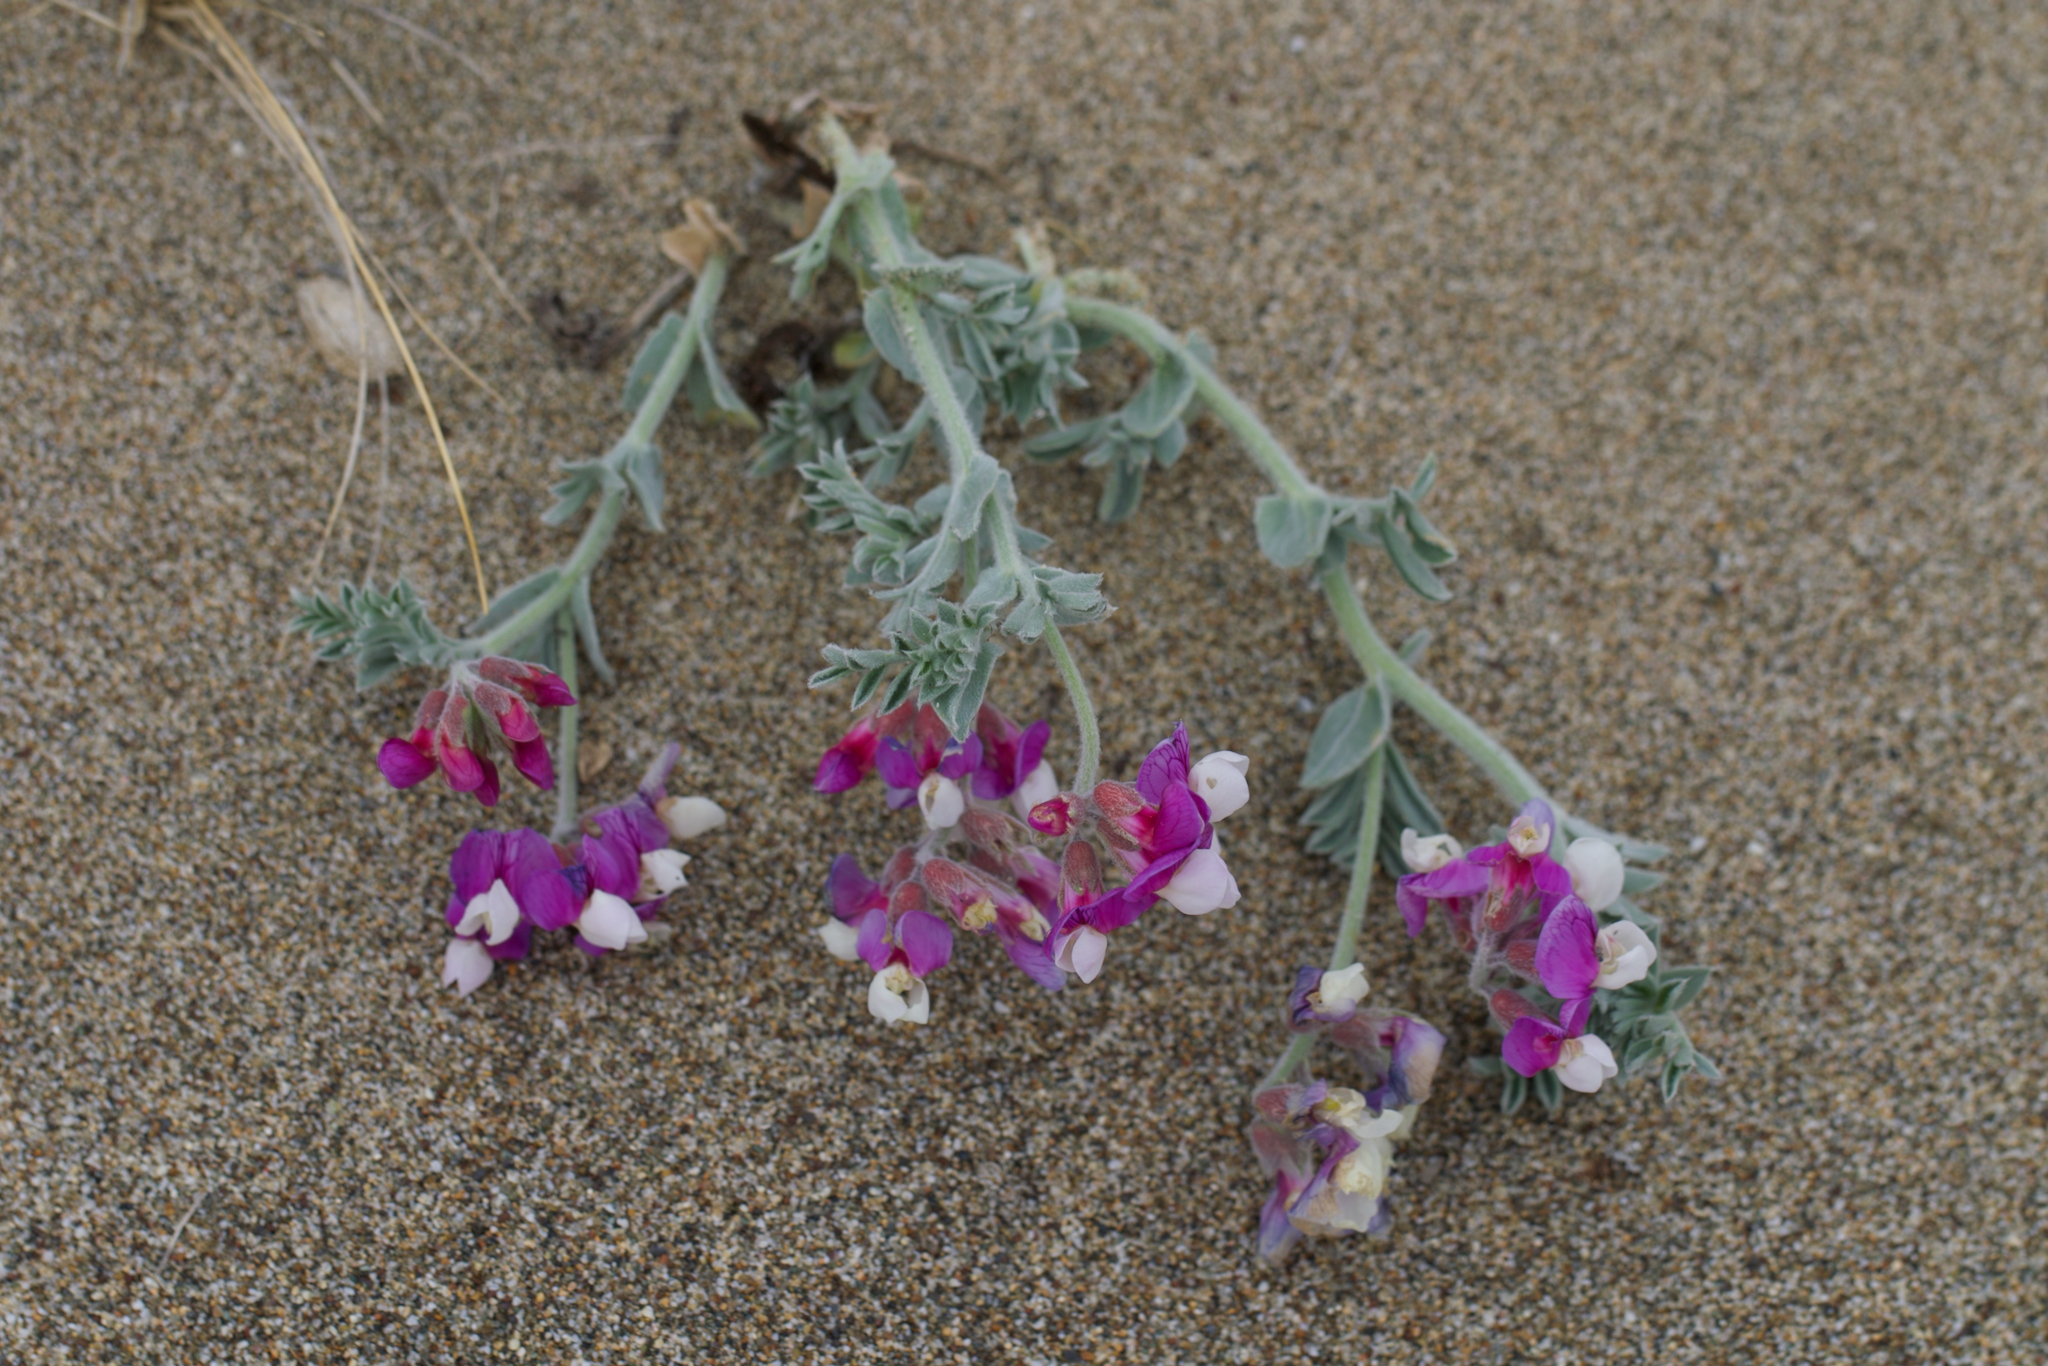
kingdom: Plantae
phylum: Tracheophyta
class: Magnoliopsida
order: Fabales
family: Fabaceae
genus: Lathyrus
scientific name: Lathyrus littoralis
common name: Dune sweet pea
